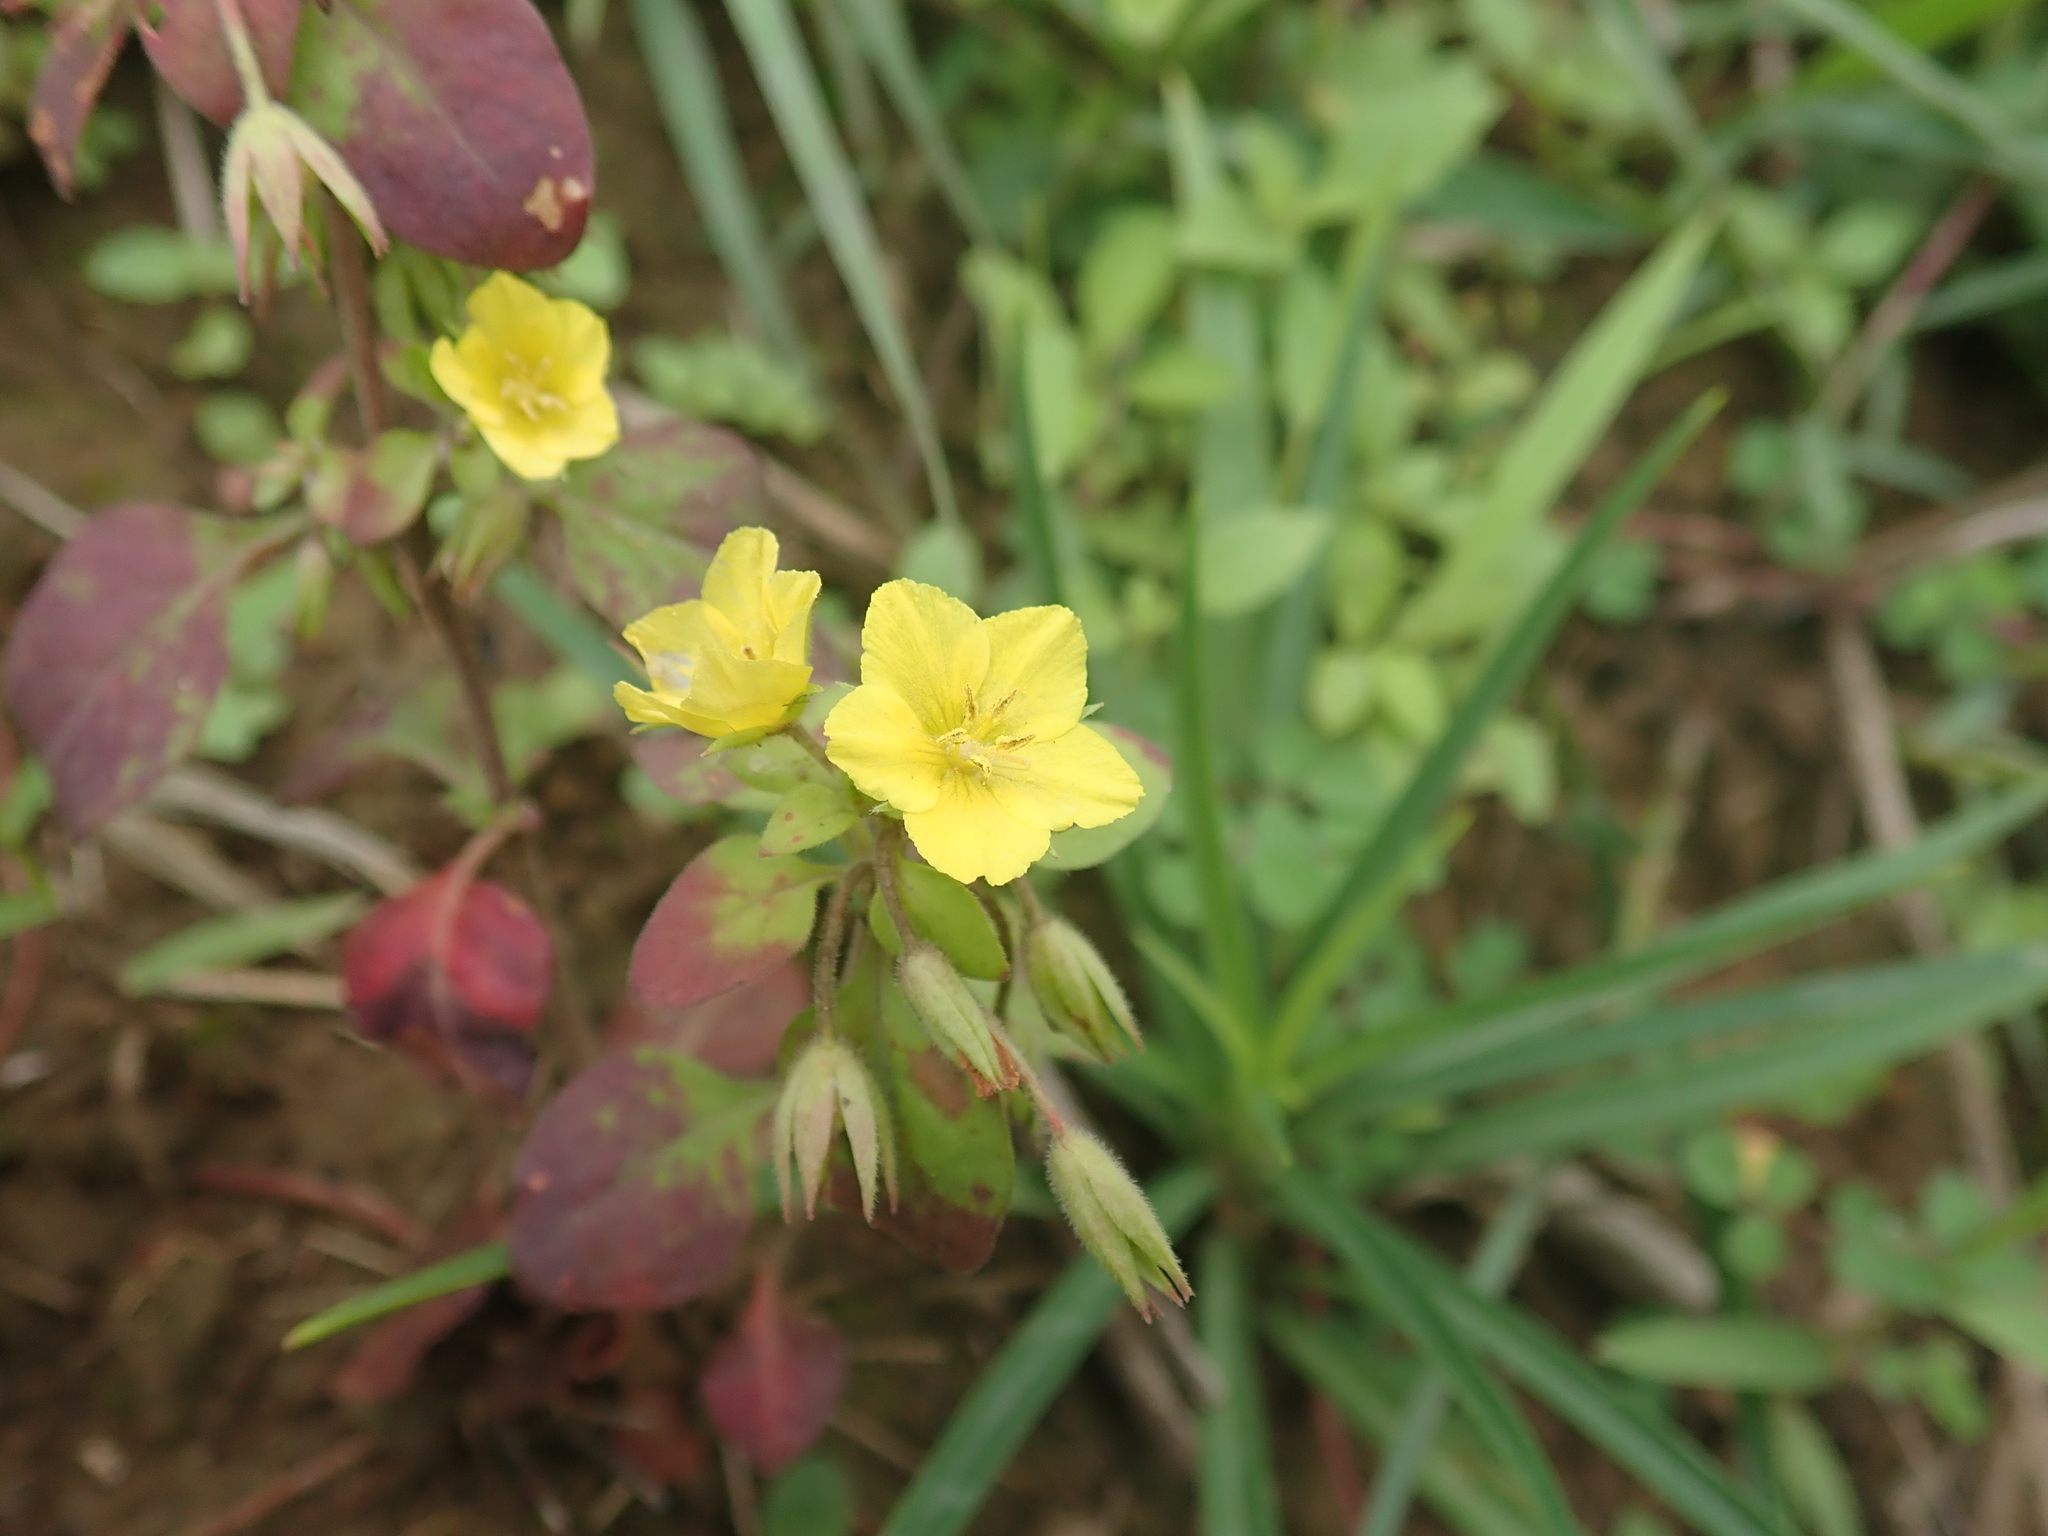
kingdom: Plantae
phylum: Tracheophyta
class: Magnoliopsida
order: Ericales
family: Primulaceae
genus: Lysimachia
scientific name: Lysimachia remota
